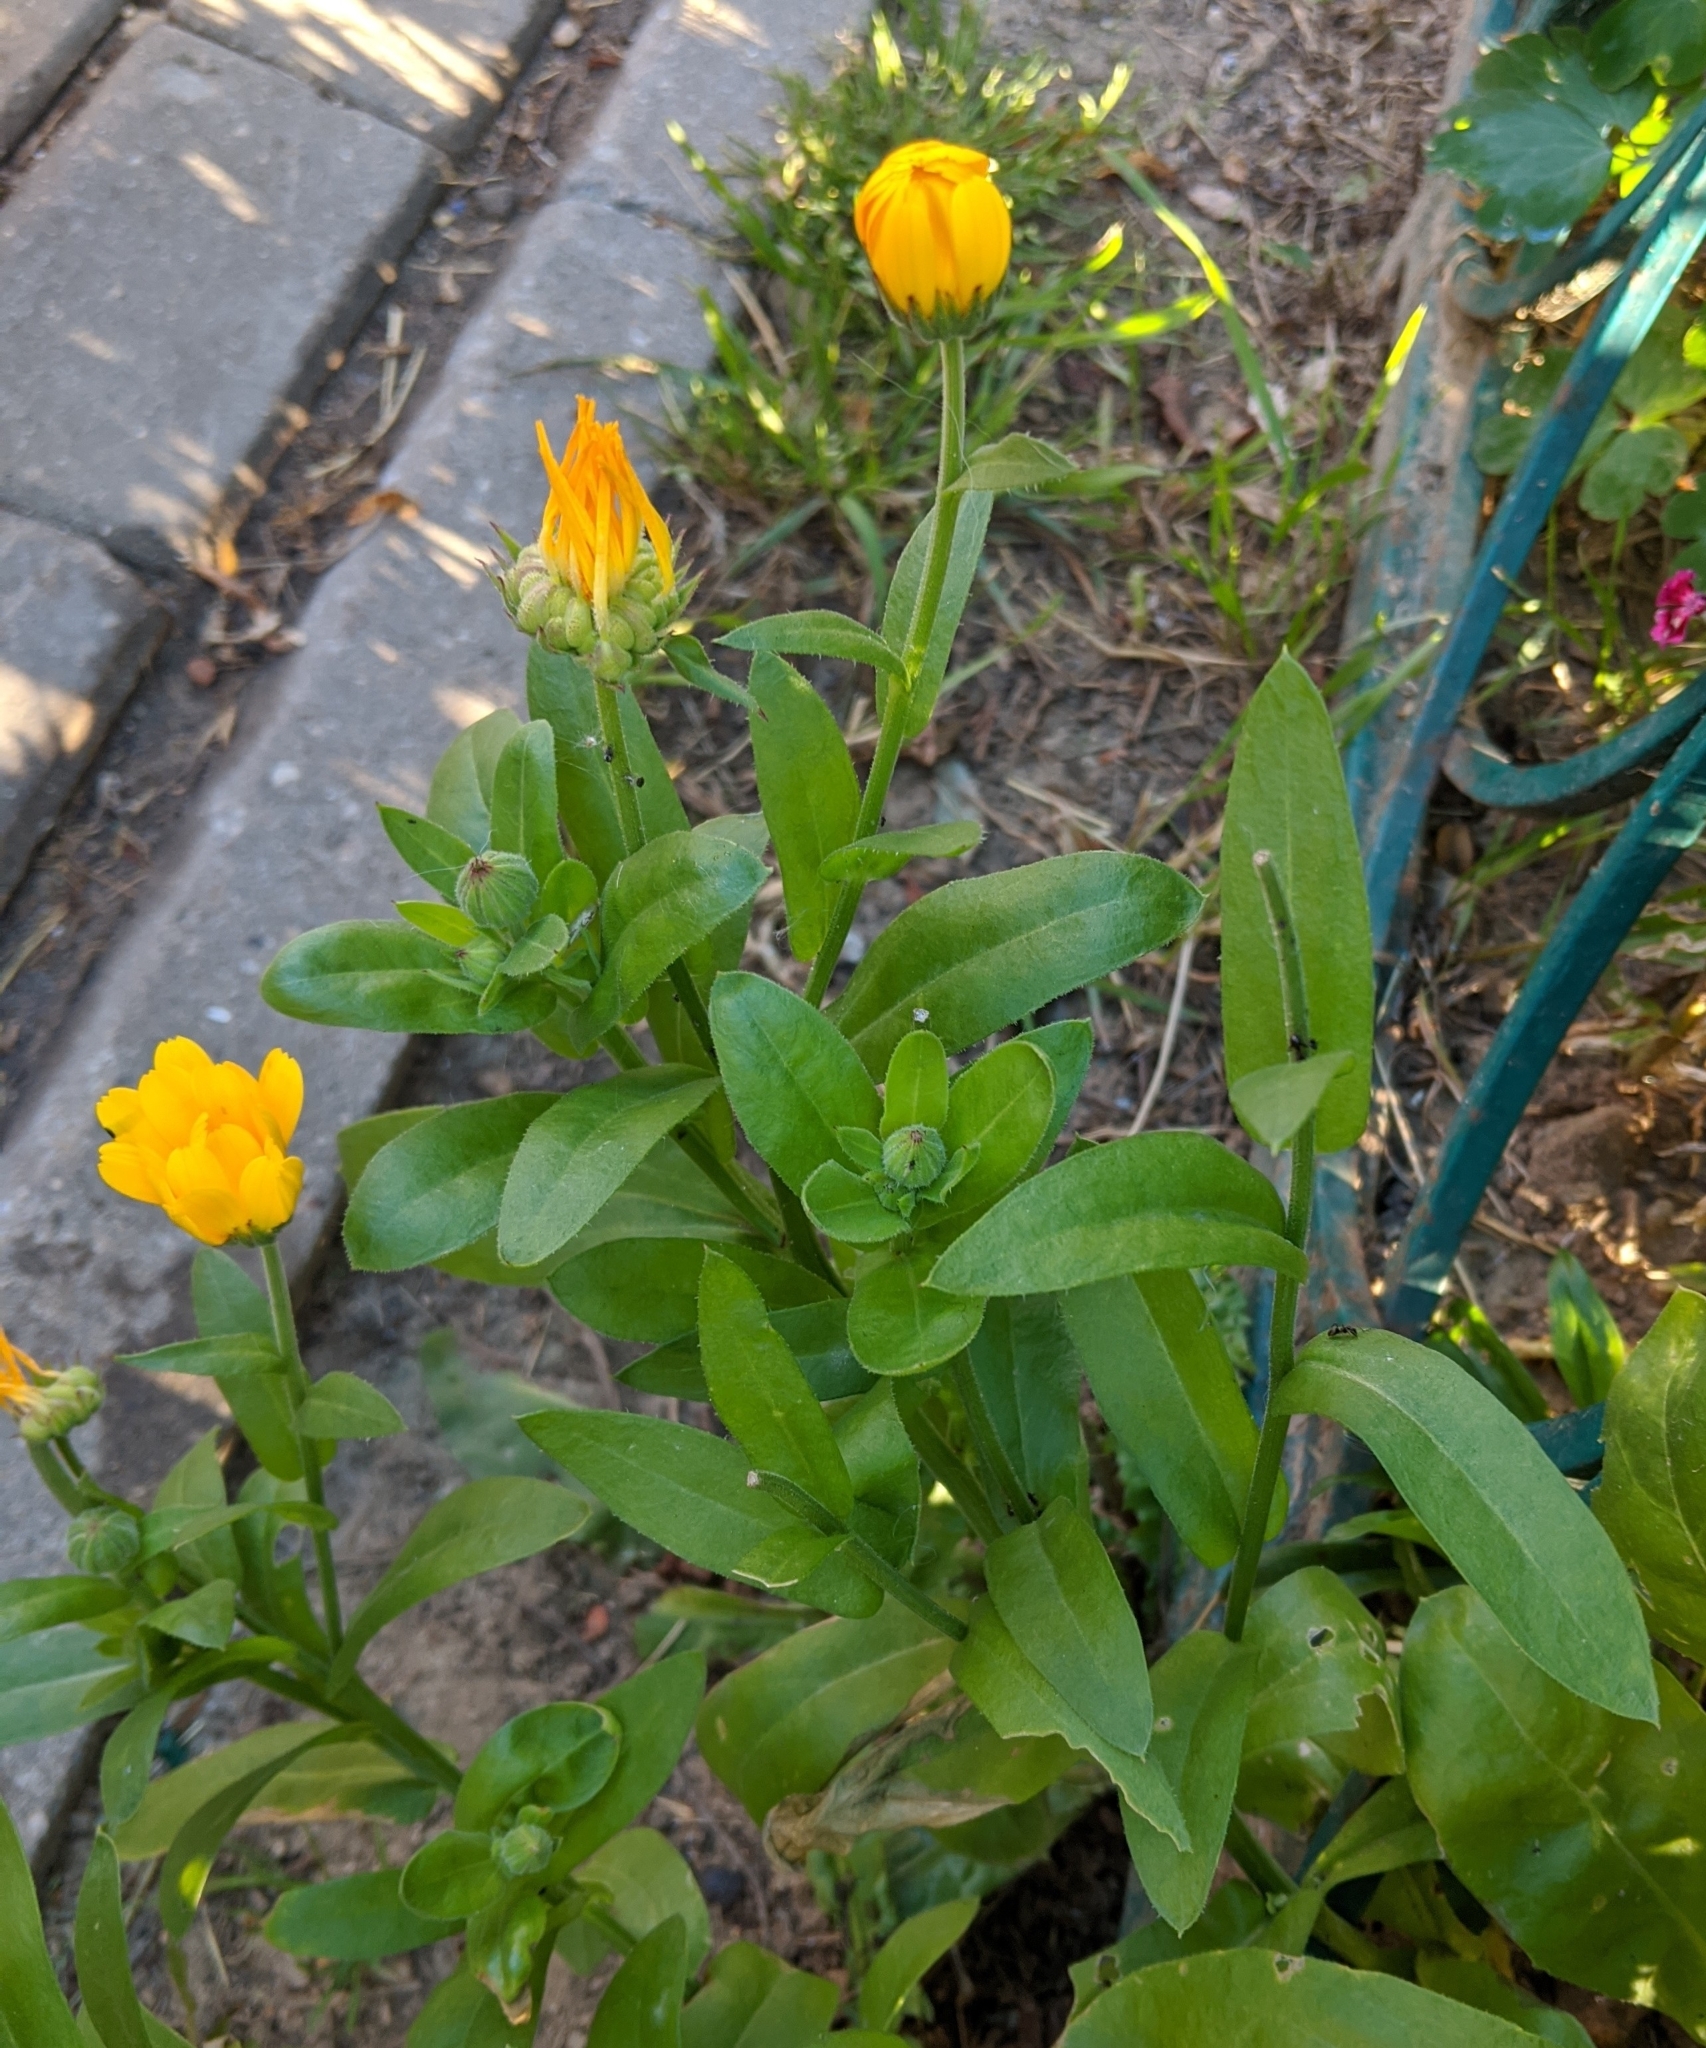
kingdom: Plantae
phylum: Tracheophyta
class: Magnoliopsida
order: Asterales
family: Asteraceae
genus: Calendula
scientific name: Calendula officinalis
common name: Pot marigold
